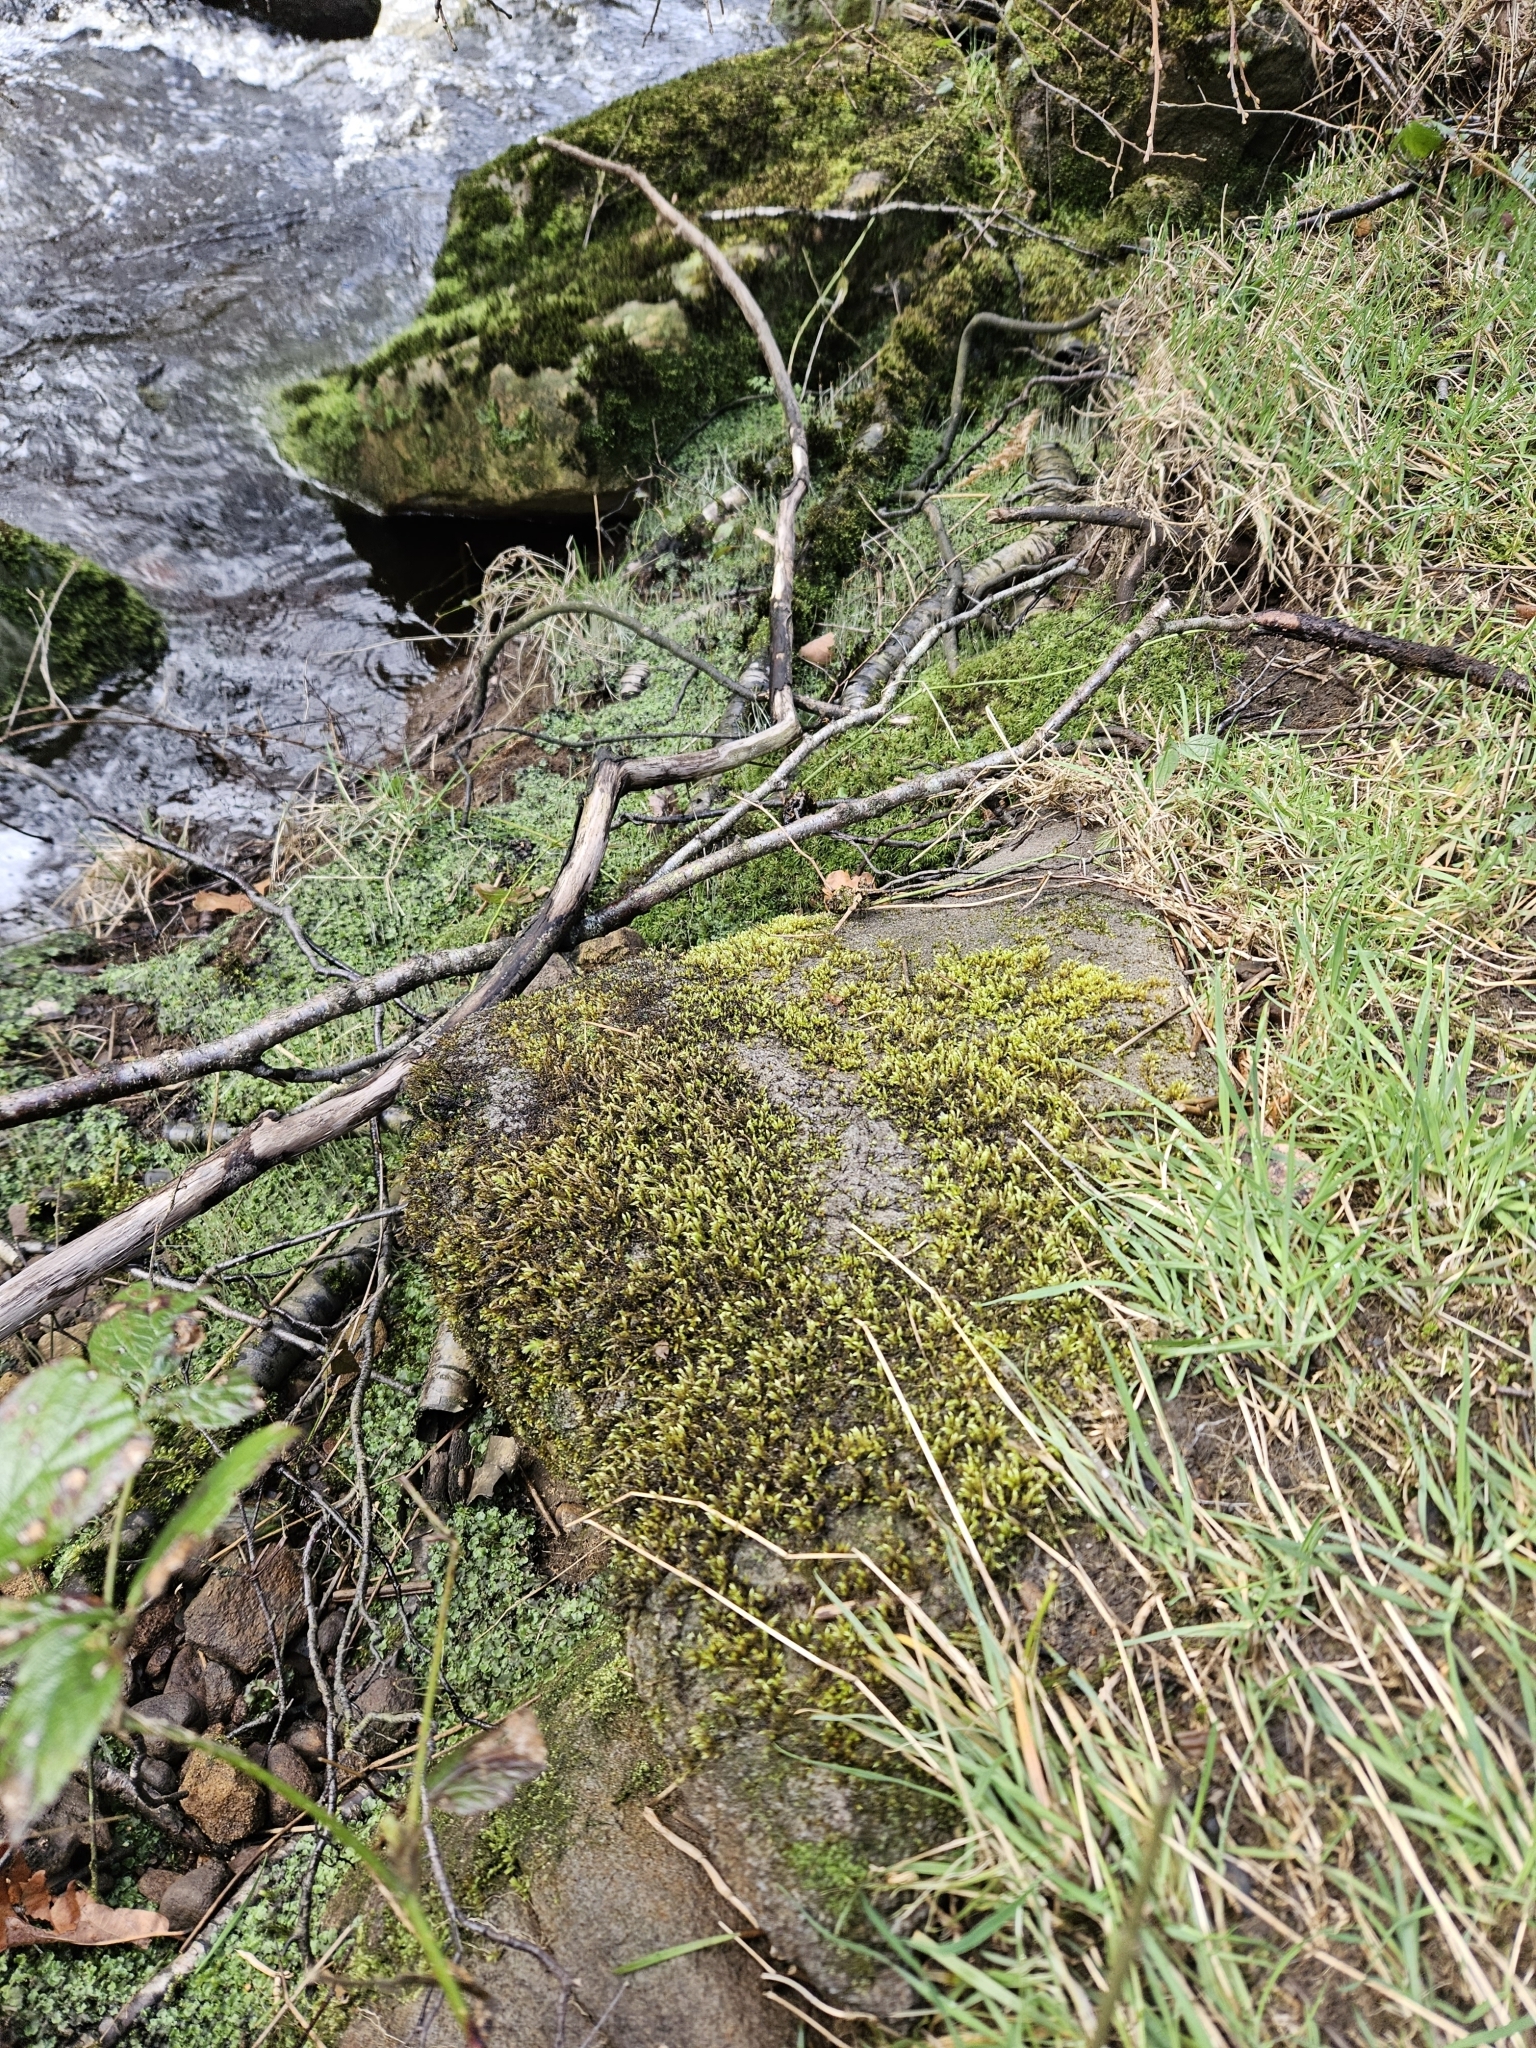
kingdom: Plantae
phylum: Bryophyta
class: Bryopsida
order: Hypnales
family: Brachytheciaceae
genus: Brachythecium
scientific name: Brachythecium rivulare
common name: River ragged moss
